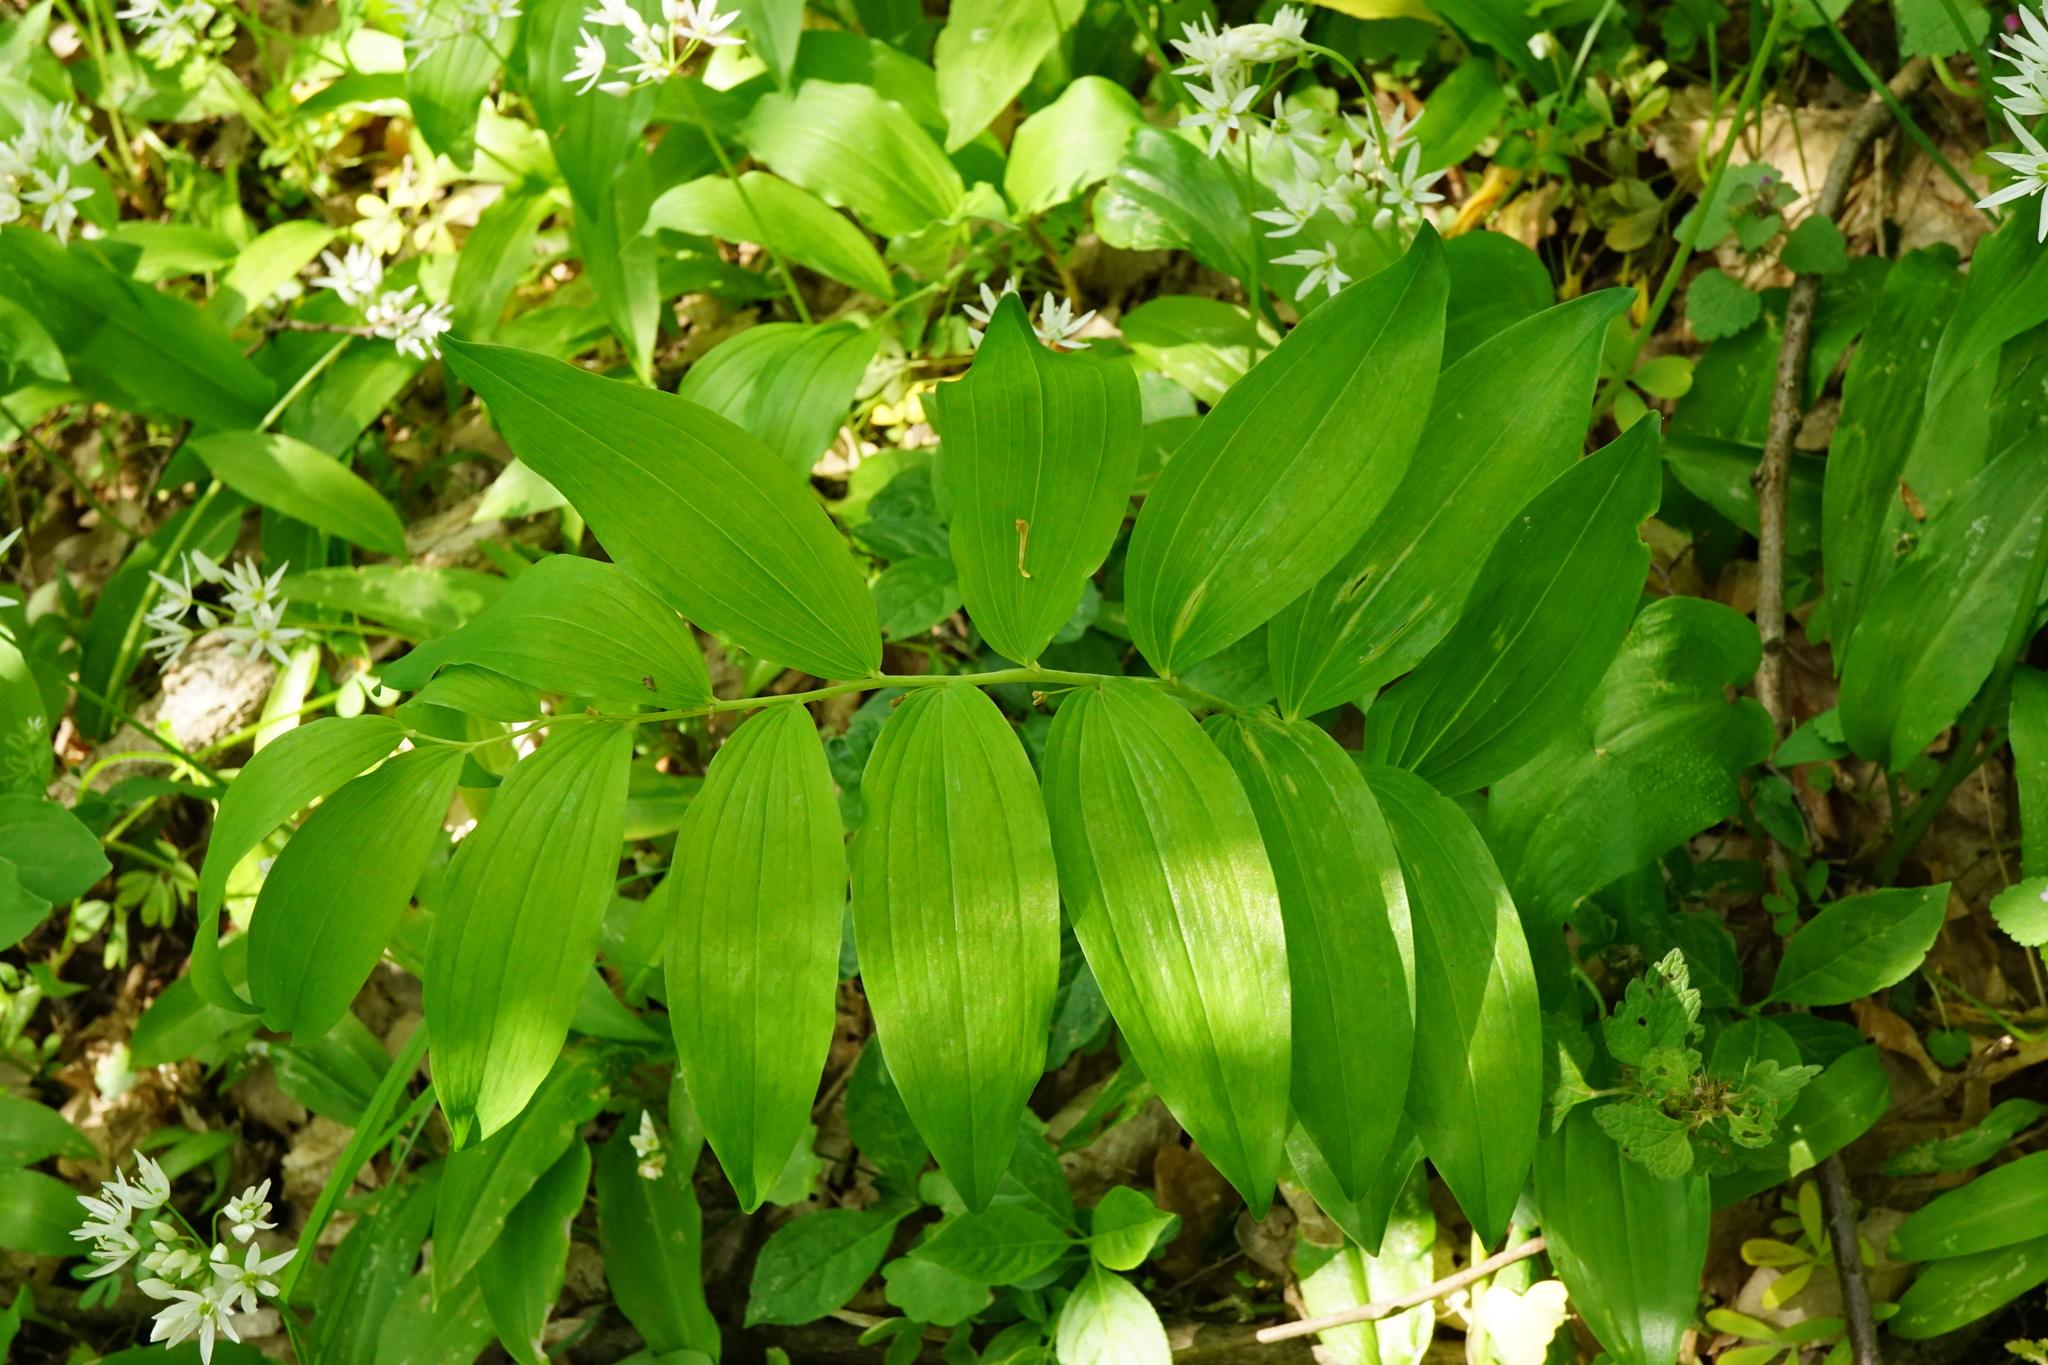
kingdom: Plantae
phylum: Tracheophyta
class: Liliopsida
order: Asparagales
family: Asparagaceae
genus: Polygonatum
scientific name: Polygonatum multiflorum
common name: Solomon's-seal
